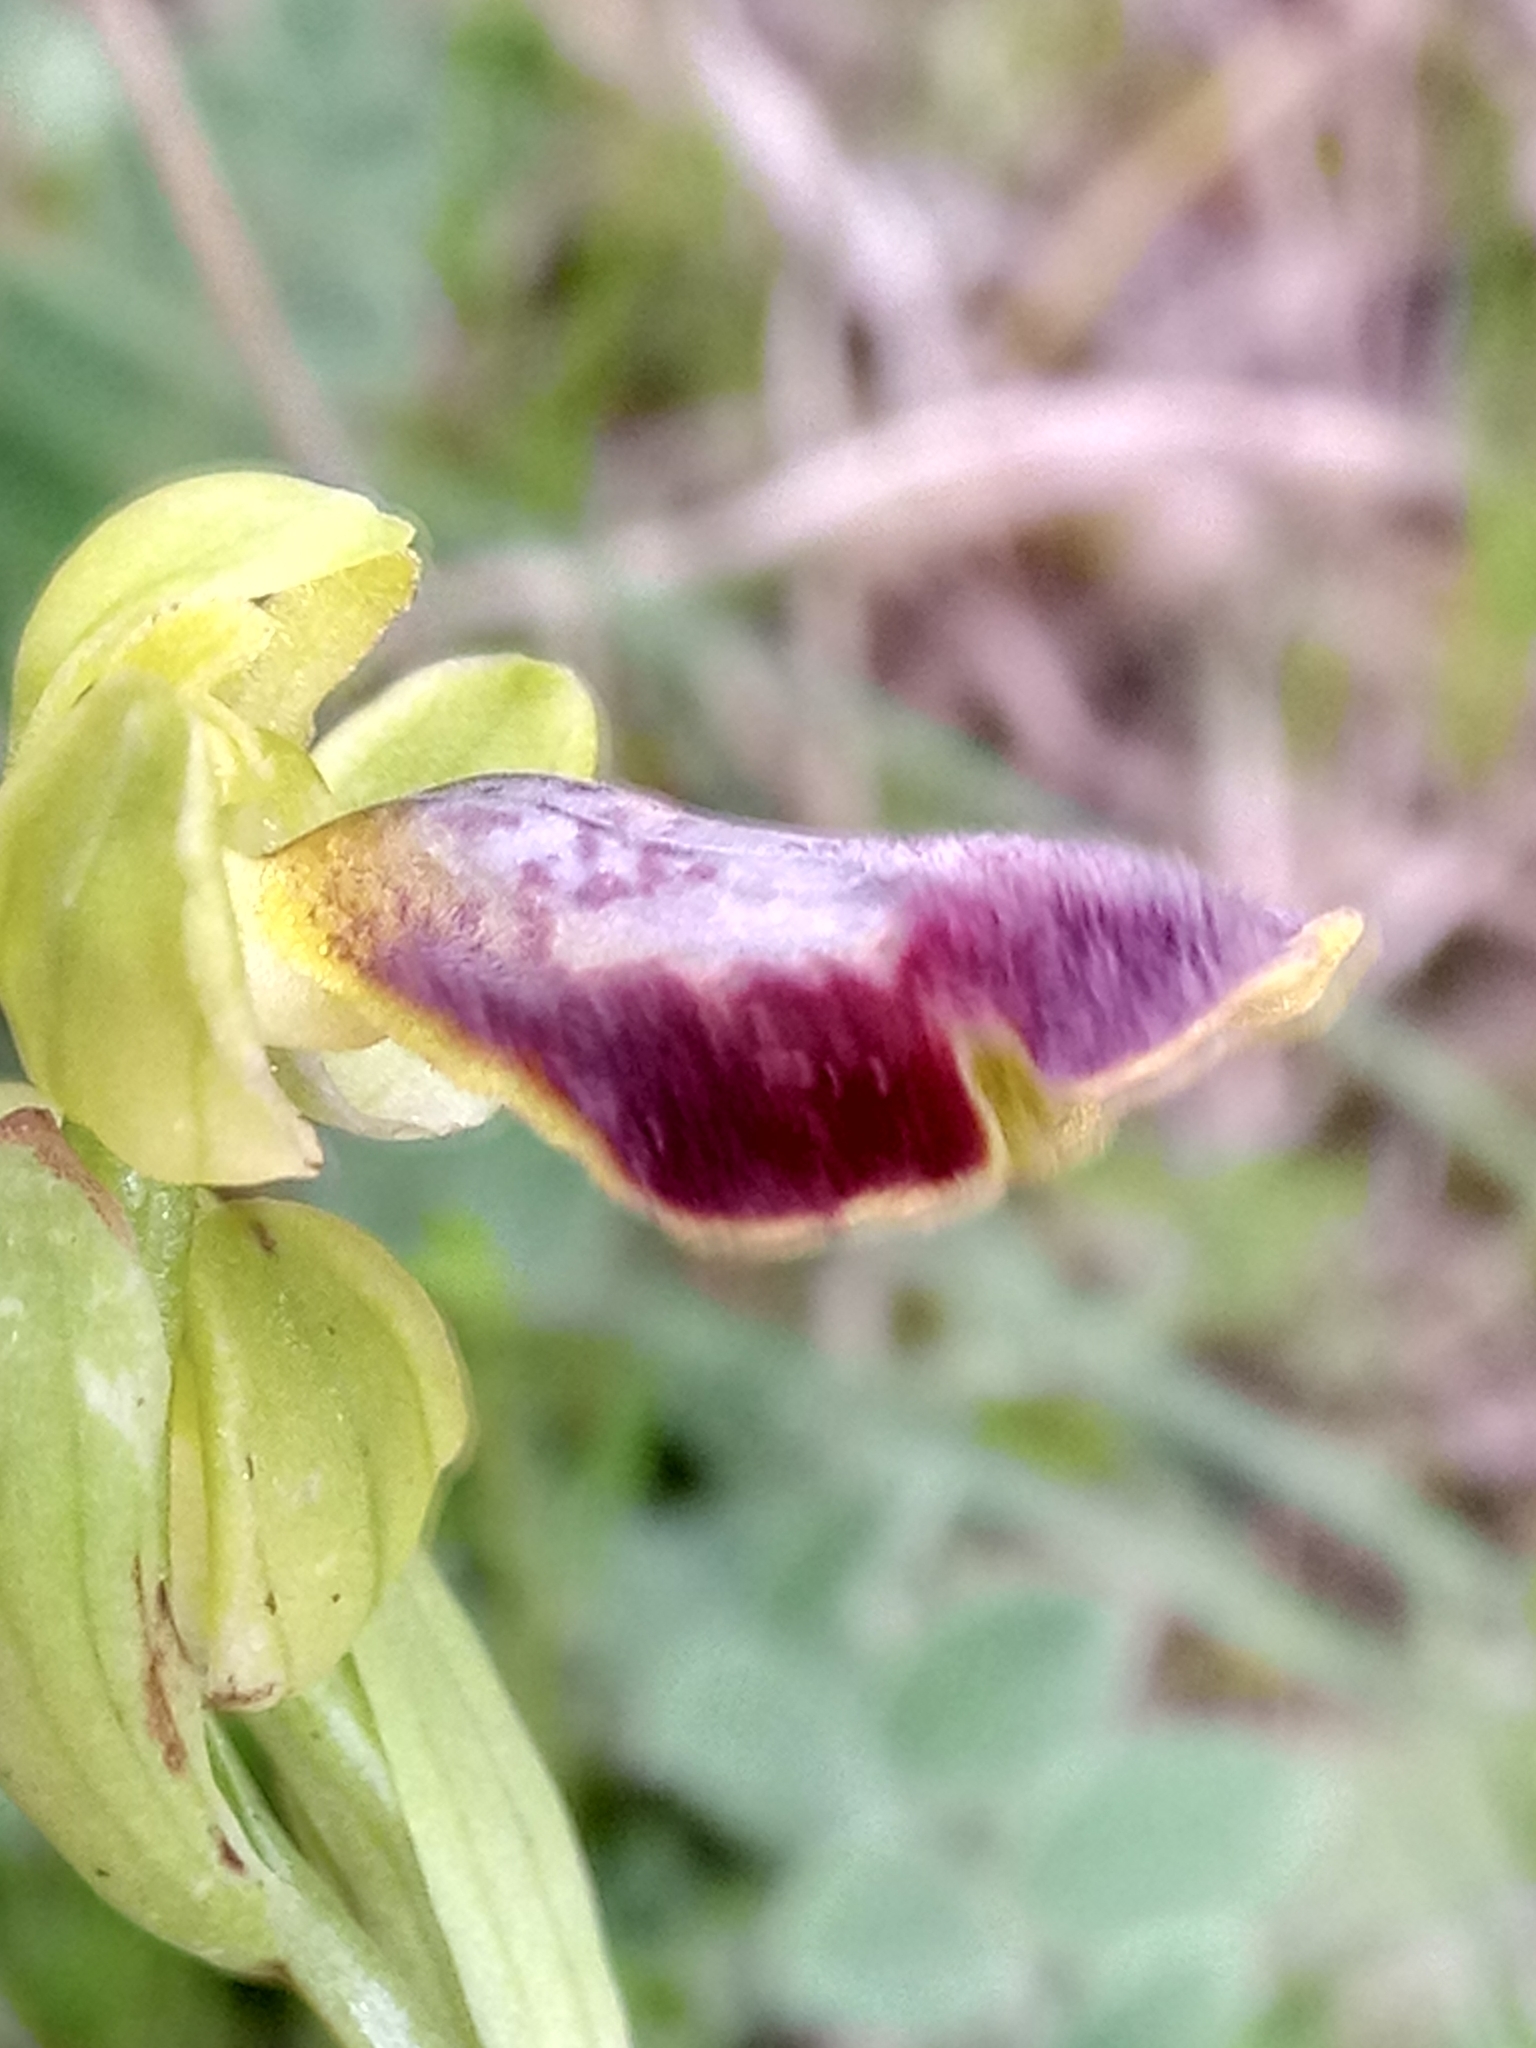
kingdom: Plantae
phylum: Tracheophyta
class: Liliopsida
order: Asparagales
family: Orchidaceae
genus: Ophrys
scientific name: Ophrys fusca
